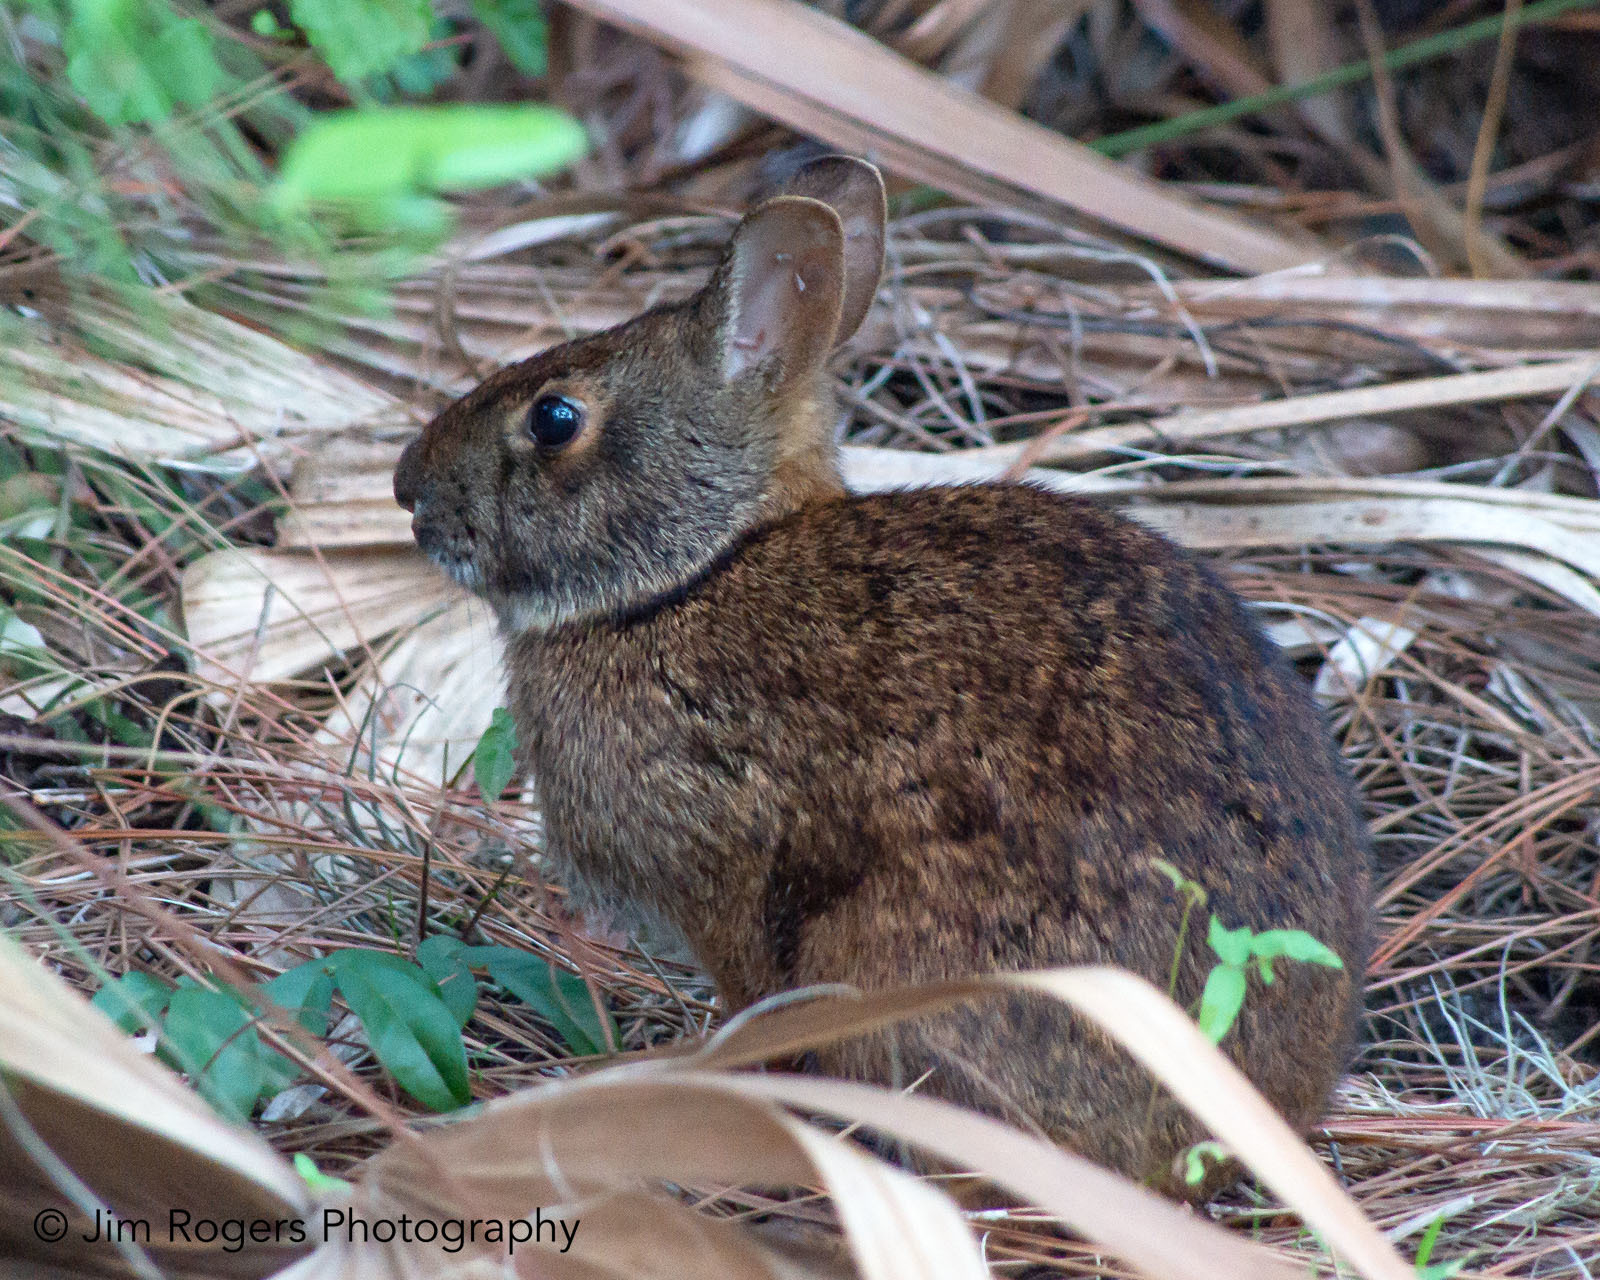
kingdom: Animalia
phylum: Chordata
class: Mammalia
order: Lagomorpha
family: Leporidae
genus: Sylvilagus
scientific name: Sylvilagus palustris
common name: Marsh rabbit
